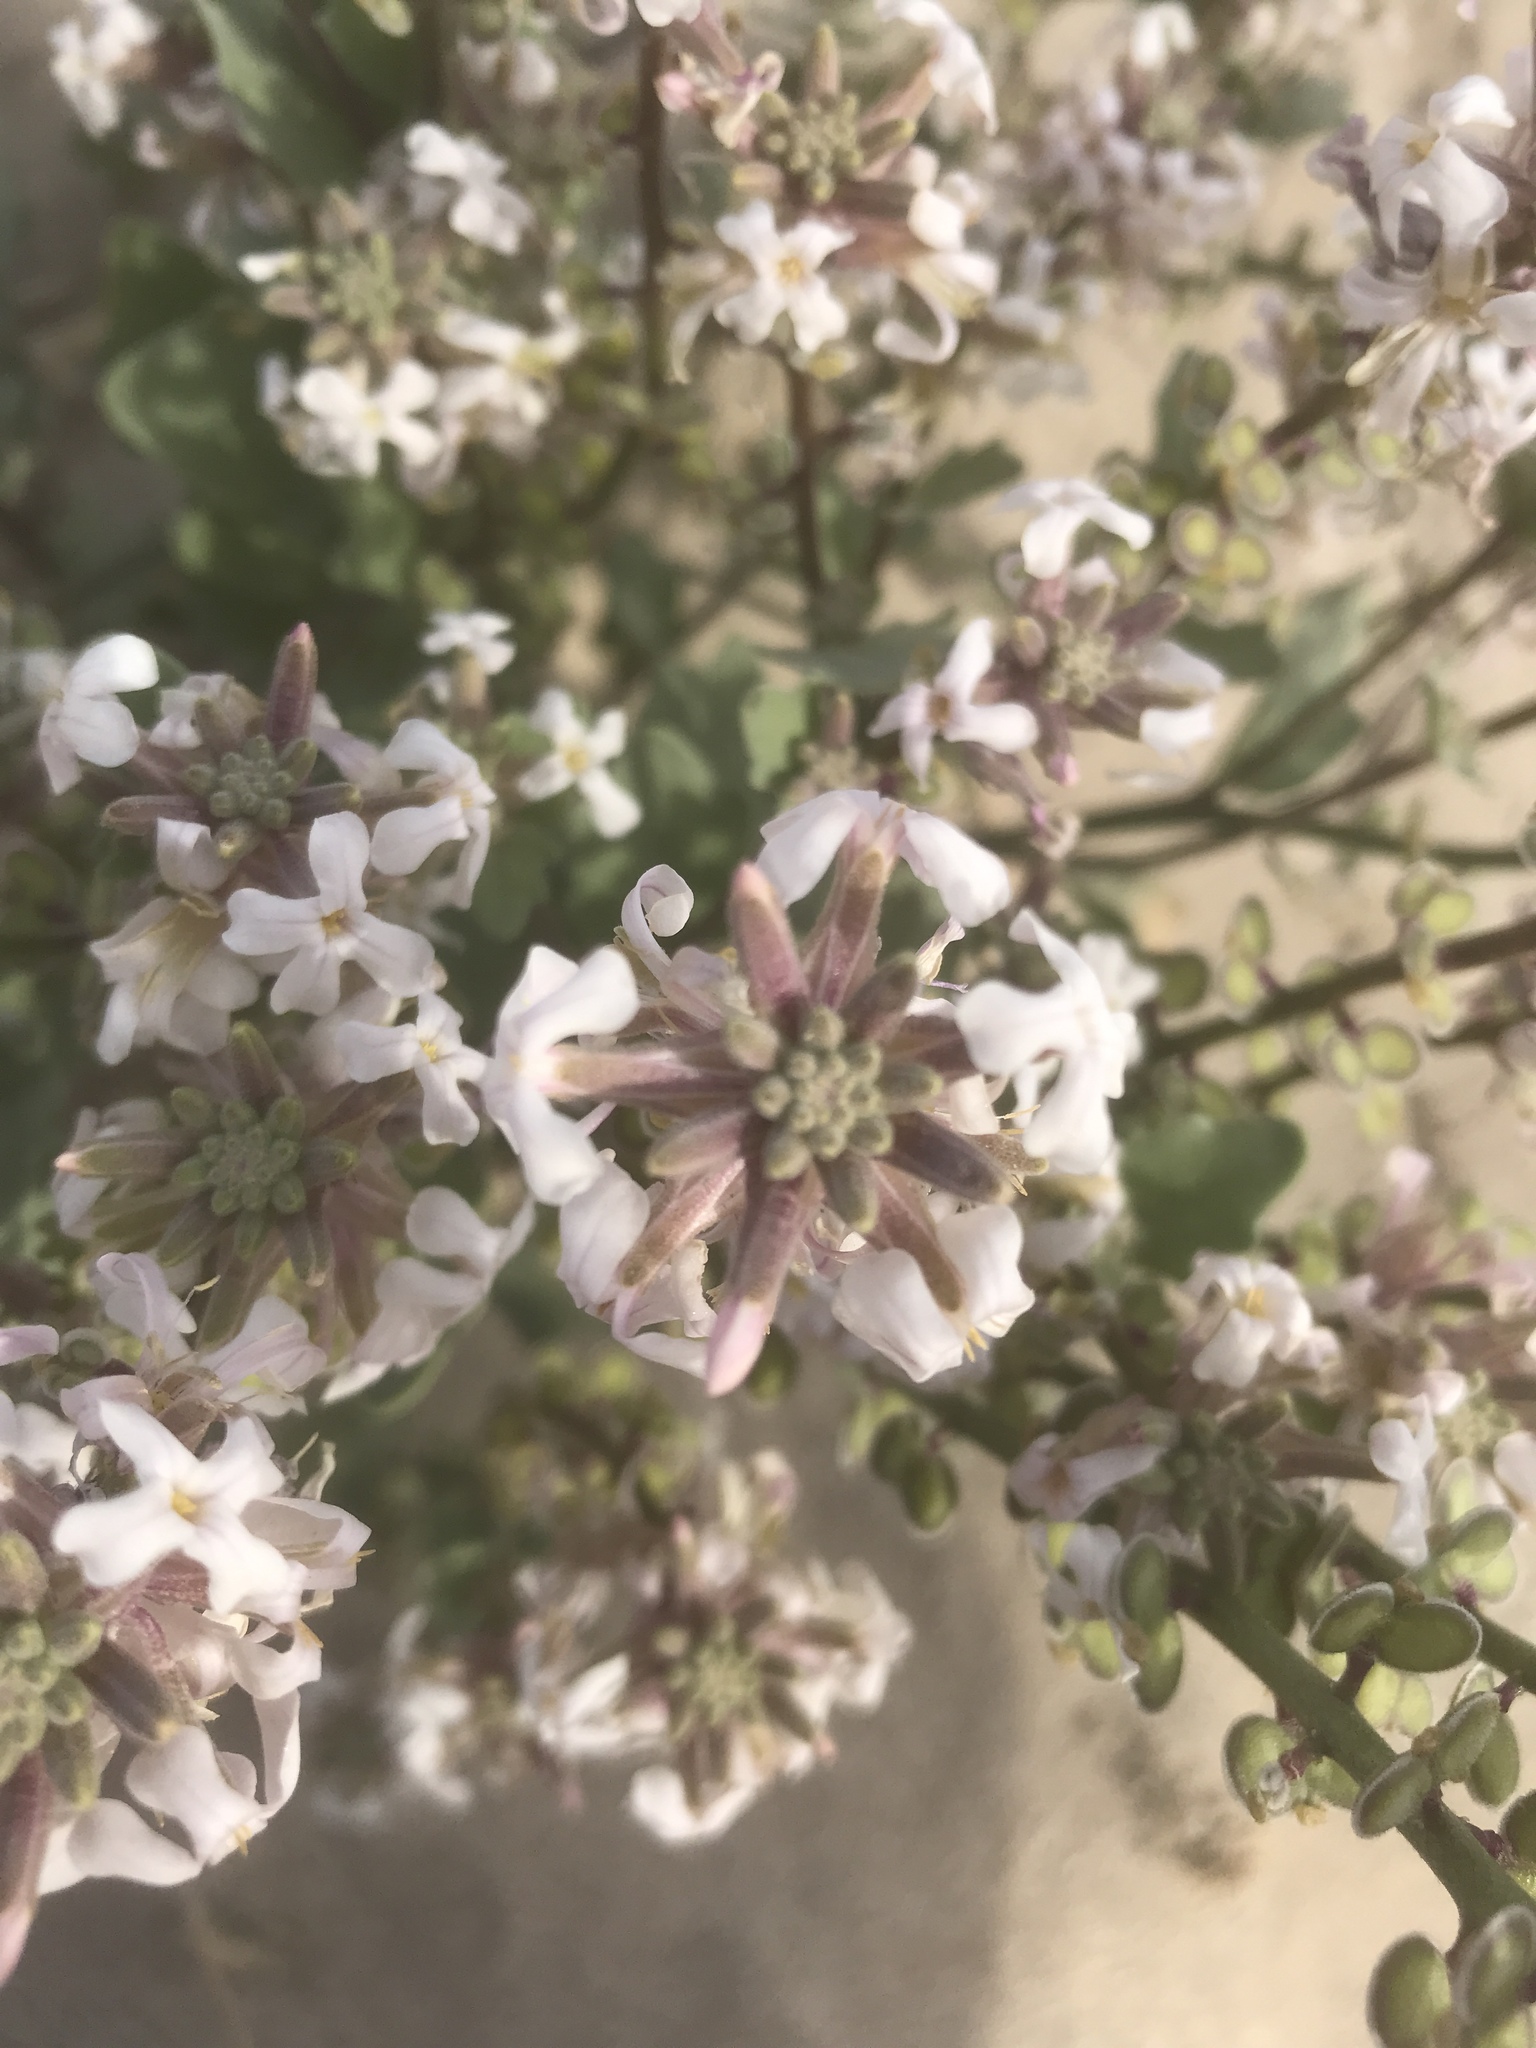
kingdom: Plantae
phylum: Tracheophyta
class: Magnoliopsida
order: Brassicales
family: Brassicaceae
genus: Dithyrea
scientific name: Dithyrea californica
